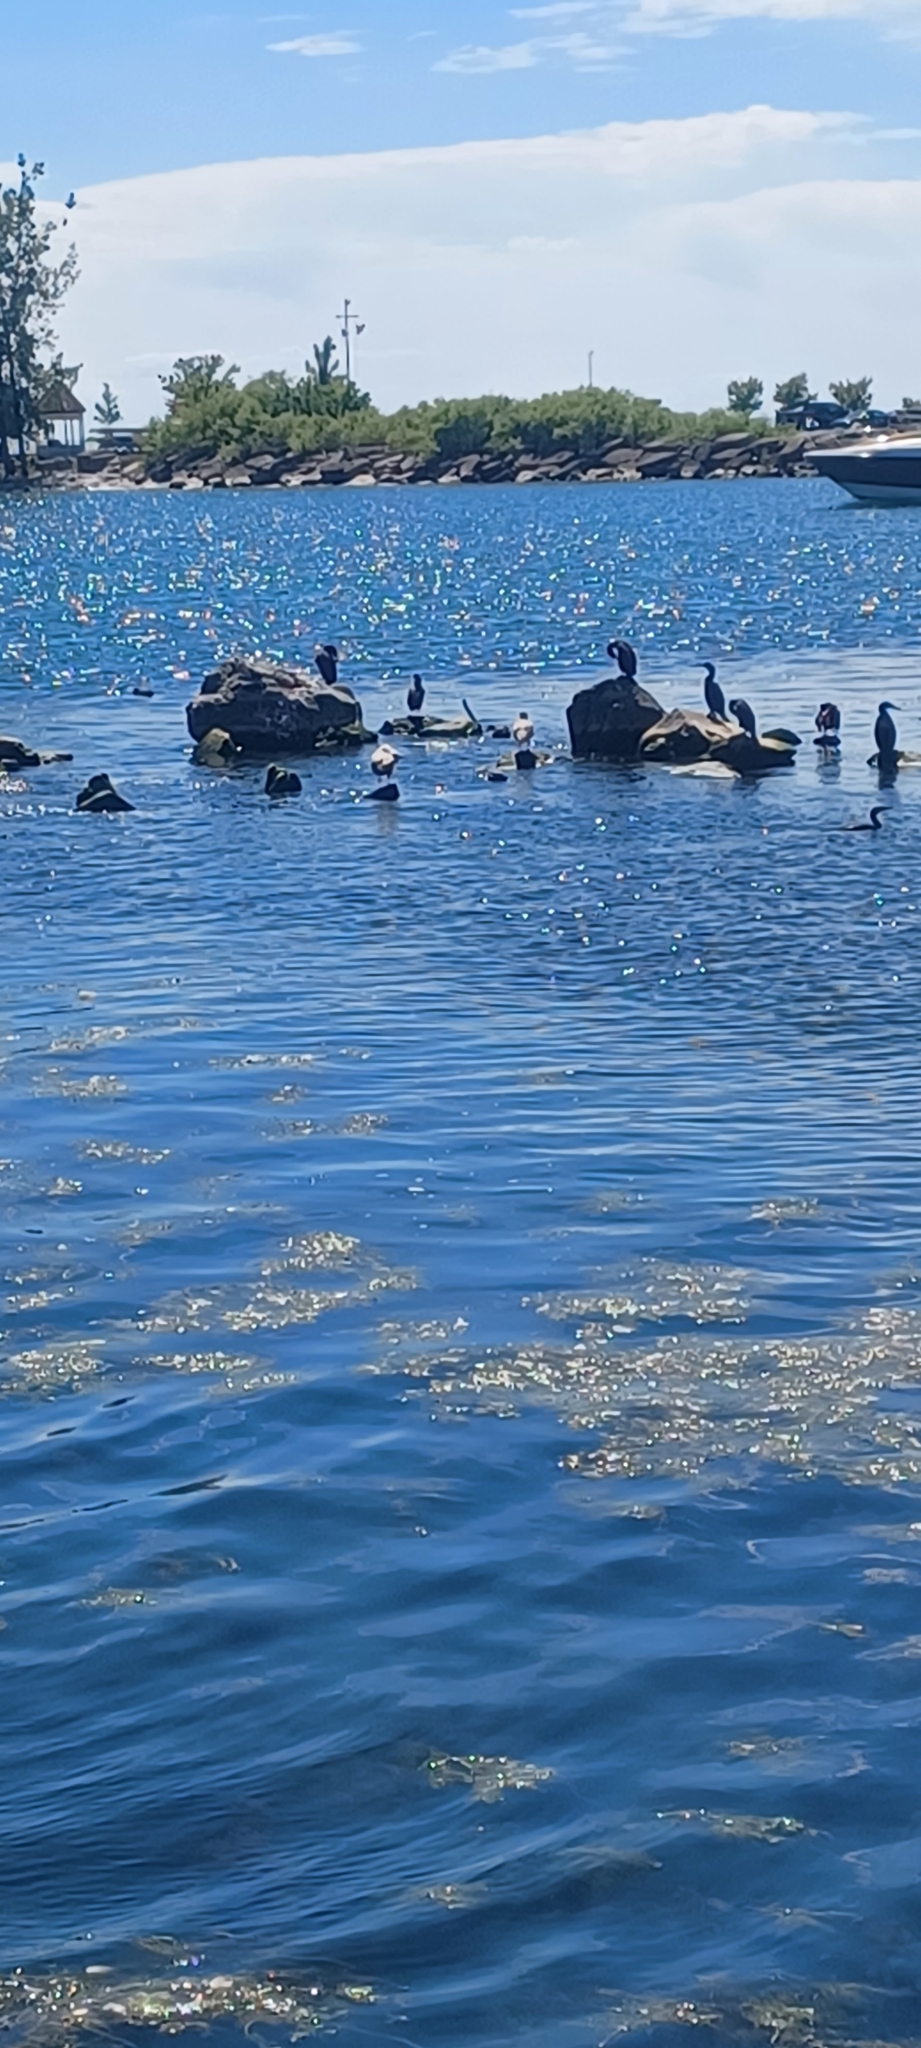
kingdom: Animalia
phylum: Chordata
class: Aves
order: Suliformes
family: Phalacrocoracidae
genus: Phalacrocorax
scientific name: Phalacrocorax auritus
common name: Double-crested cormorant
